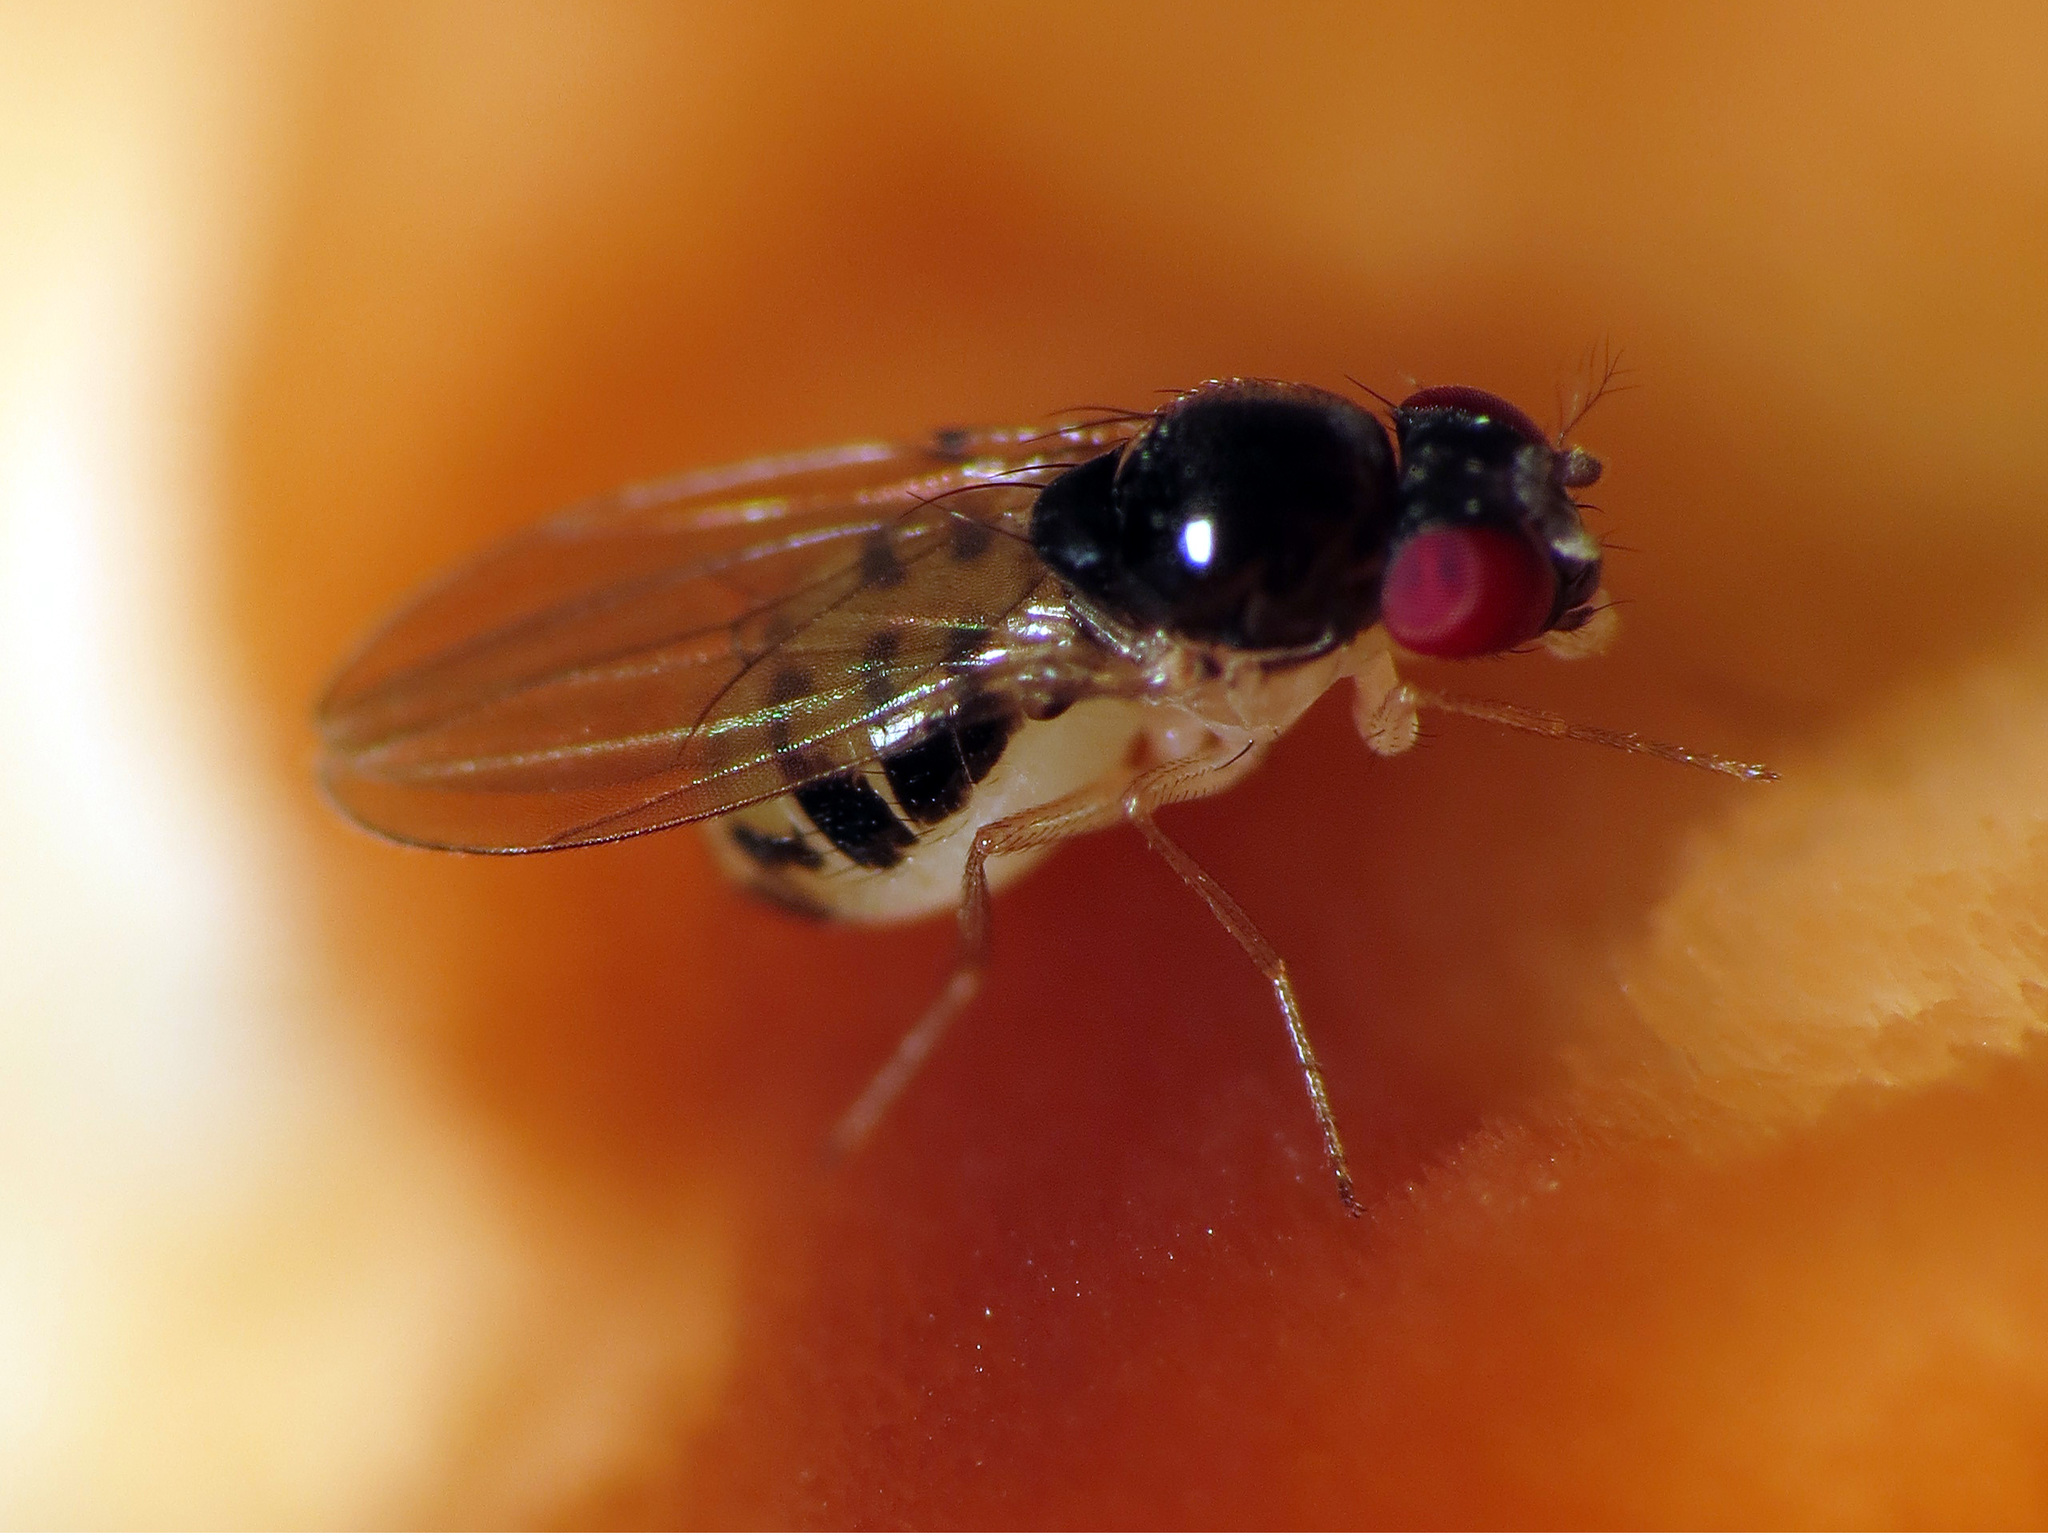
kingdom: Animalia
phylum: Arthropoda
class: Insecta
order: Diptera
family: Drosophilidae
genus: Mycodrosophila
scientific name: Mycodrosophila dimidiata
